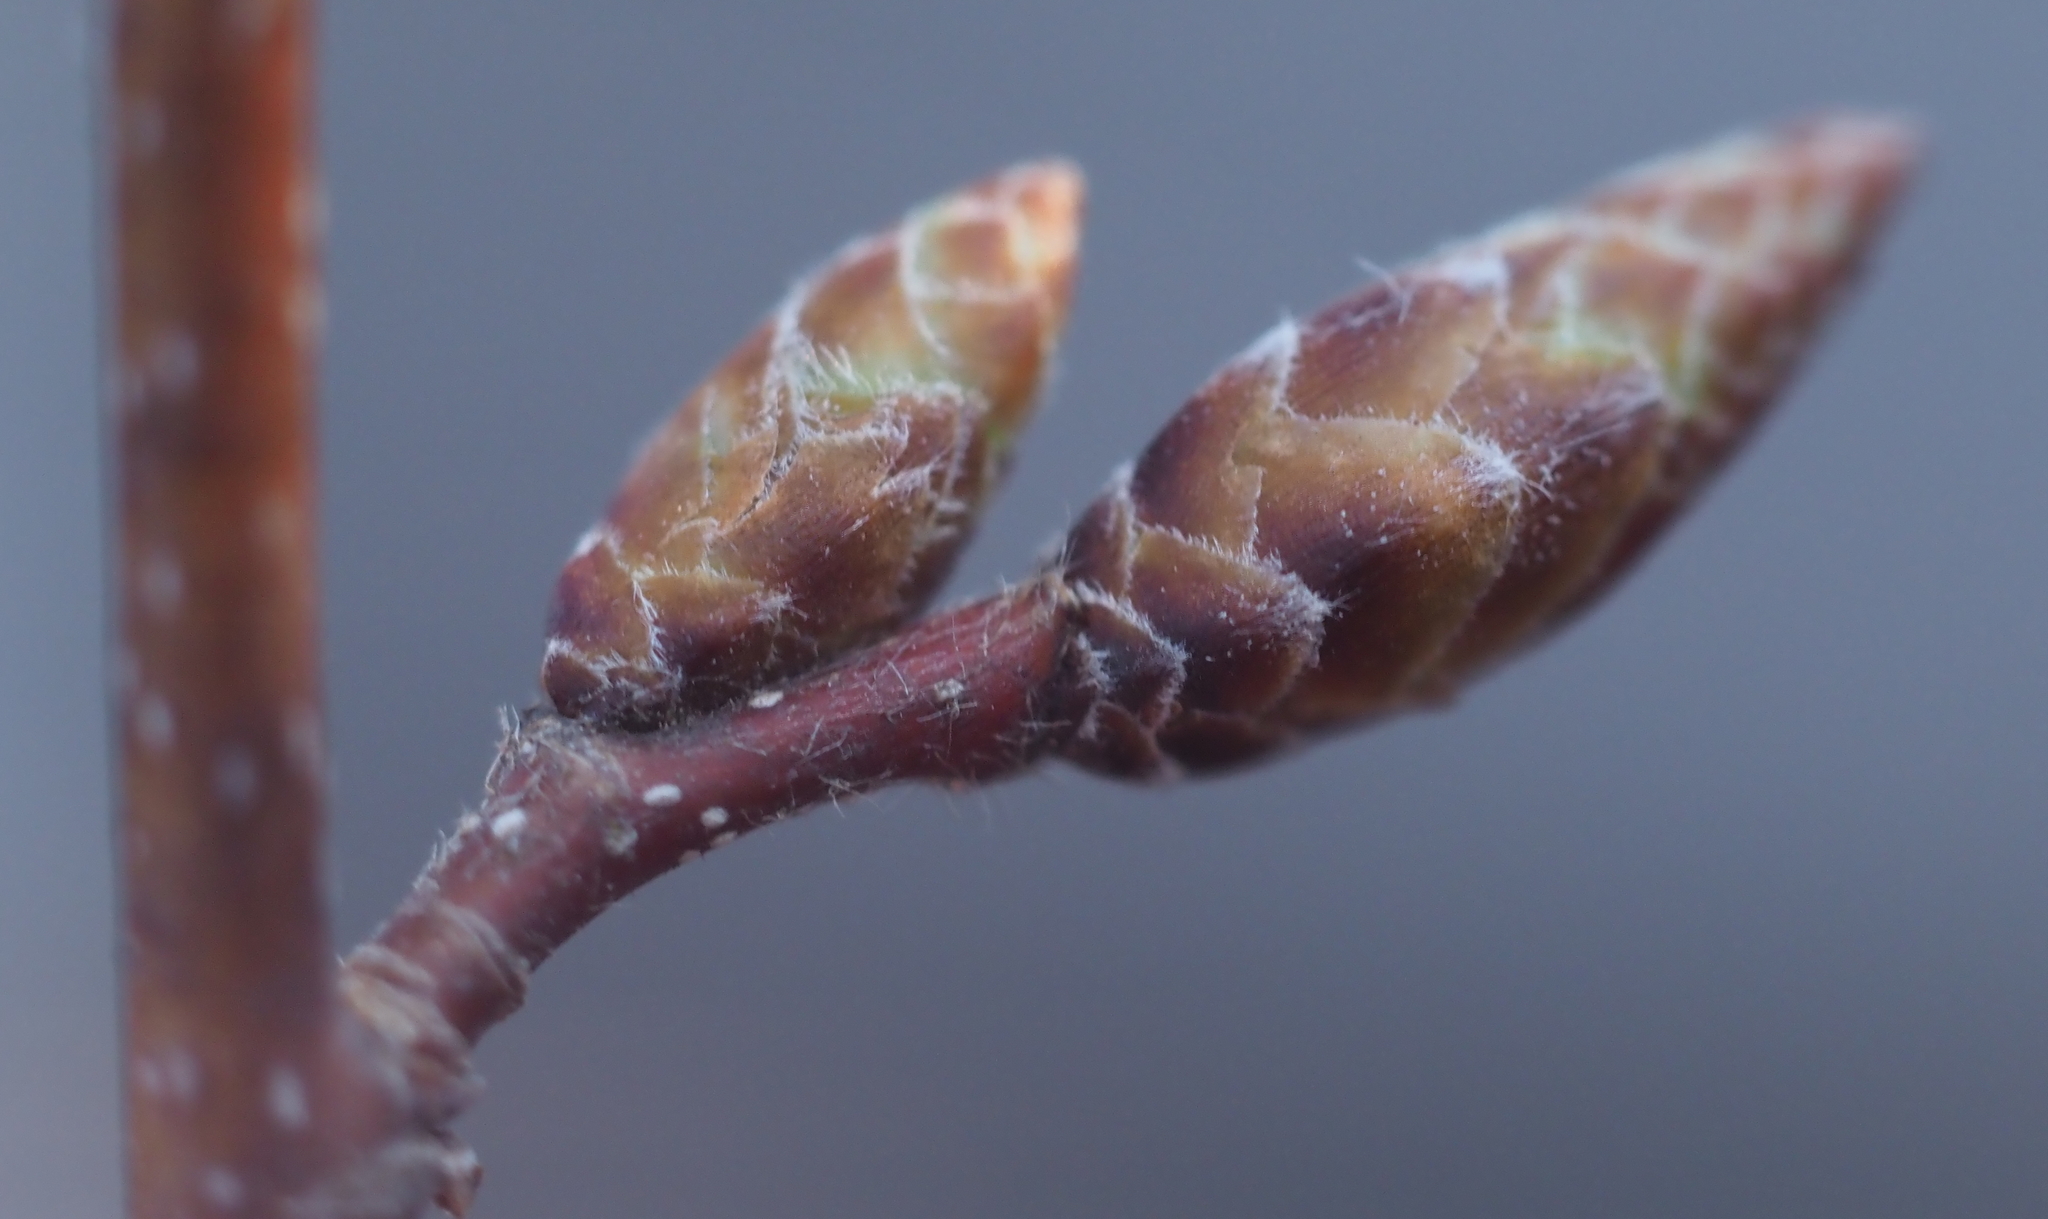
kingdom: Plantae
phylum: Tracheophyta
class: Magnoliopsida
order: Fagales
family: Betulaceae
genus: Carpinus
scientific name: Carpinus caroliniana
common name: American hornbeam
